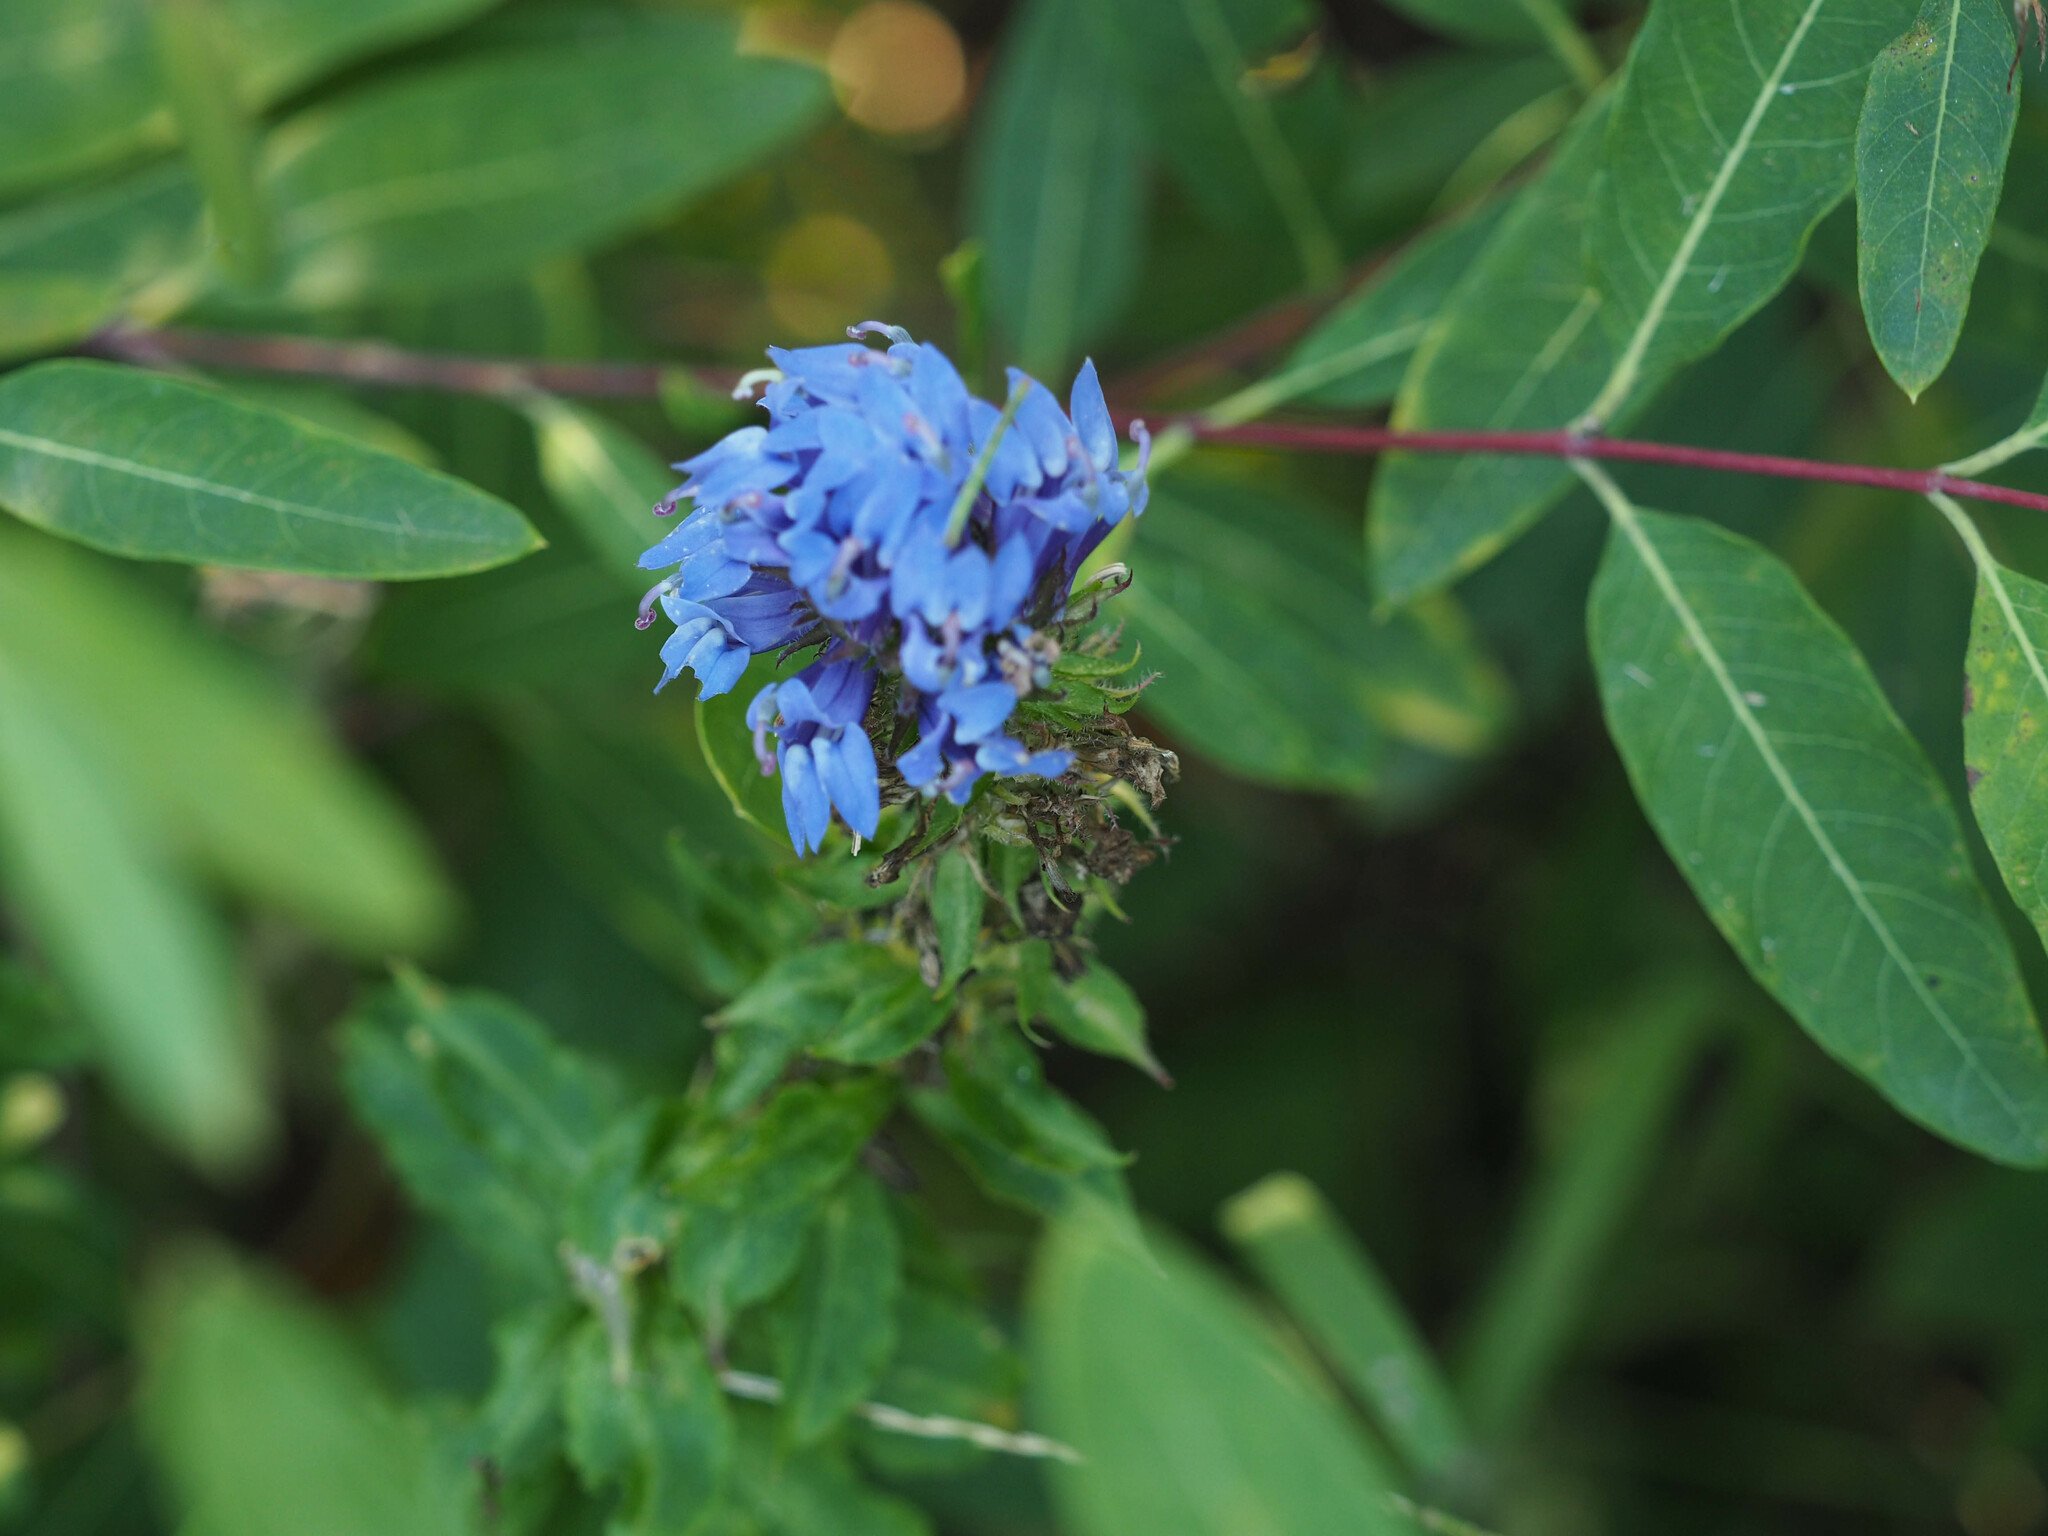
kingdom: Plantae
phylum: Tracheophyta
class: Magnoliopsida
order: Asterales
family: Campanulaceae
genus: Lobelia
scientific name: Lobelia siphilitica
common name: Great lobelia
